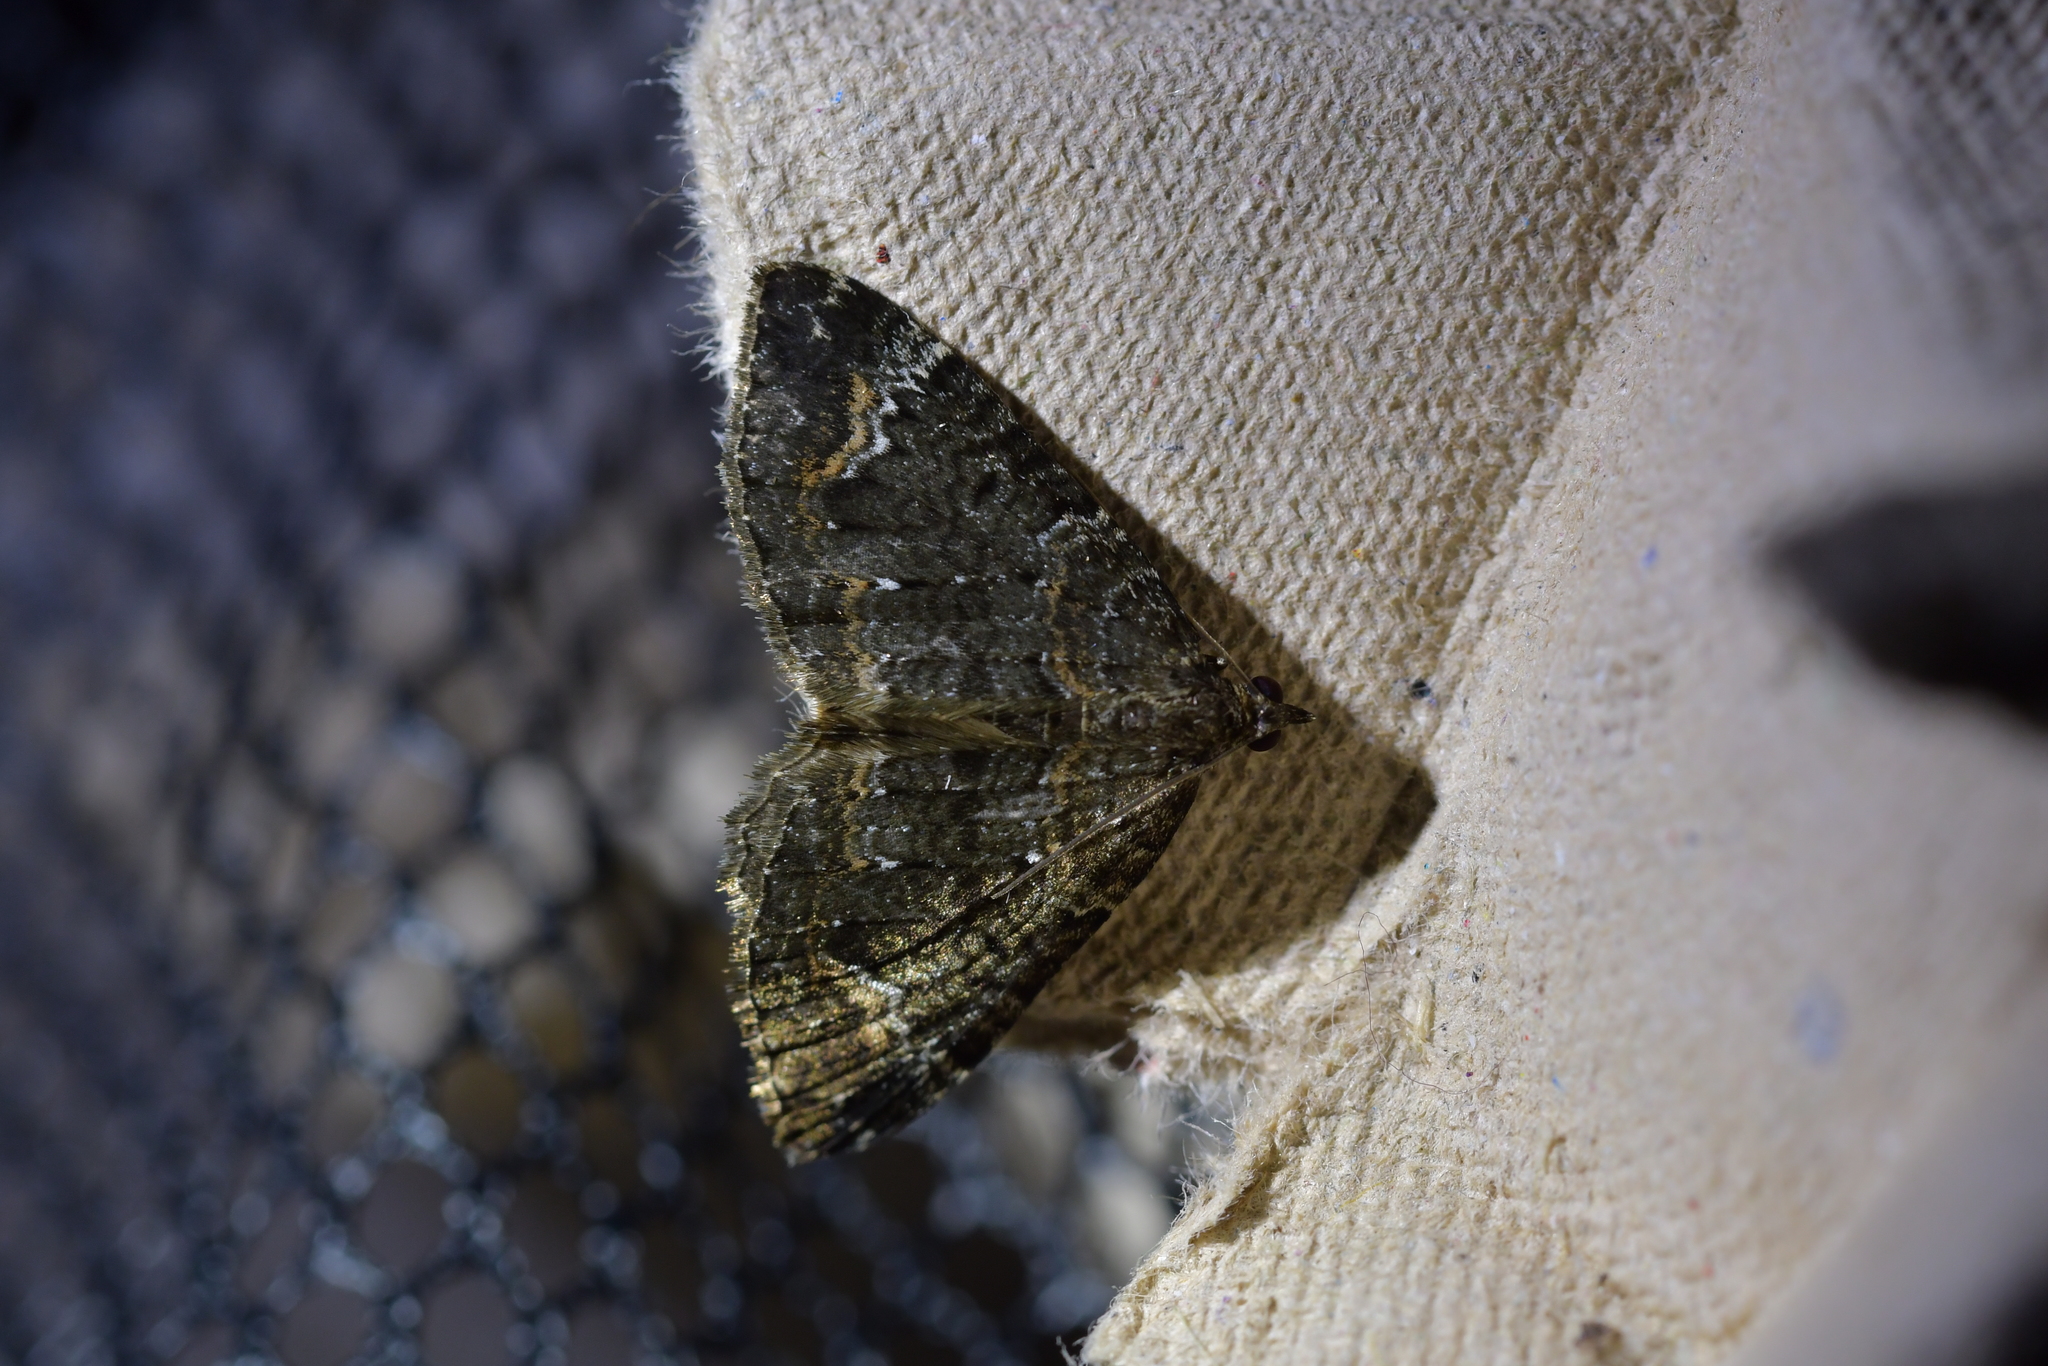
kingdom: Animalia
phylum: Arthropoda
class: Insecta
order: Lepidoptera
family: Geometridae
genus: Hydriomena
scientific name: Hydriomena hemizona
